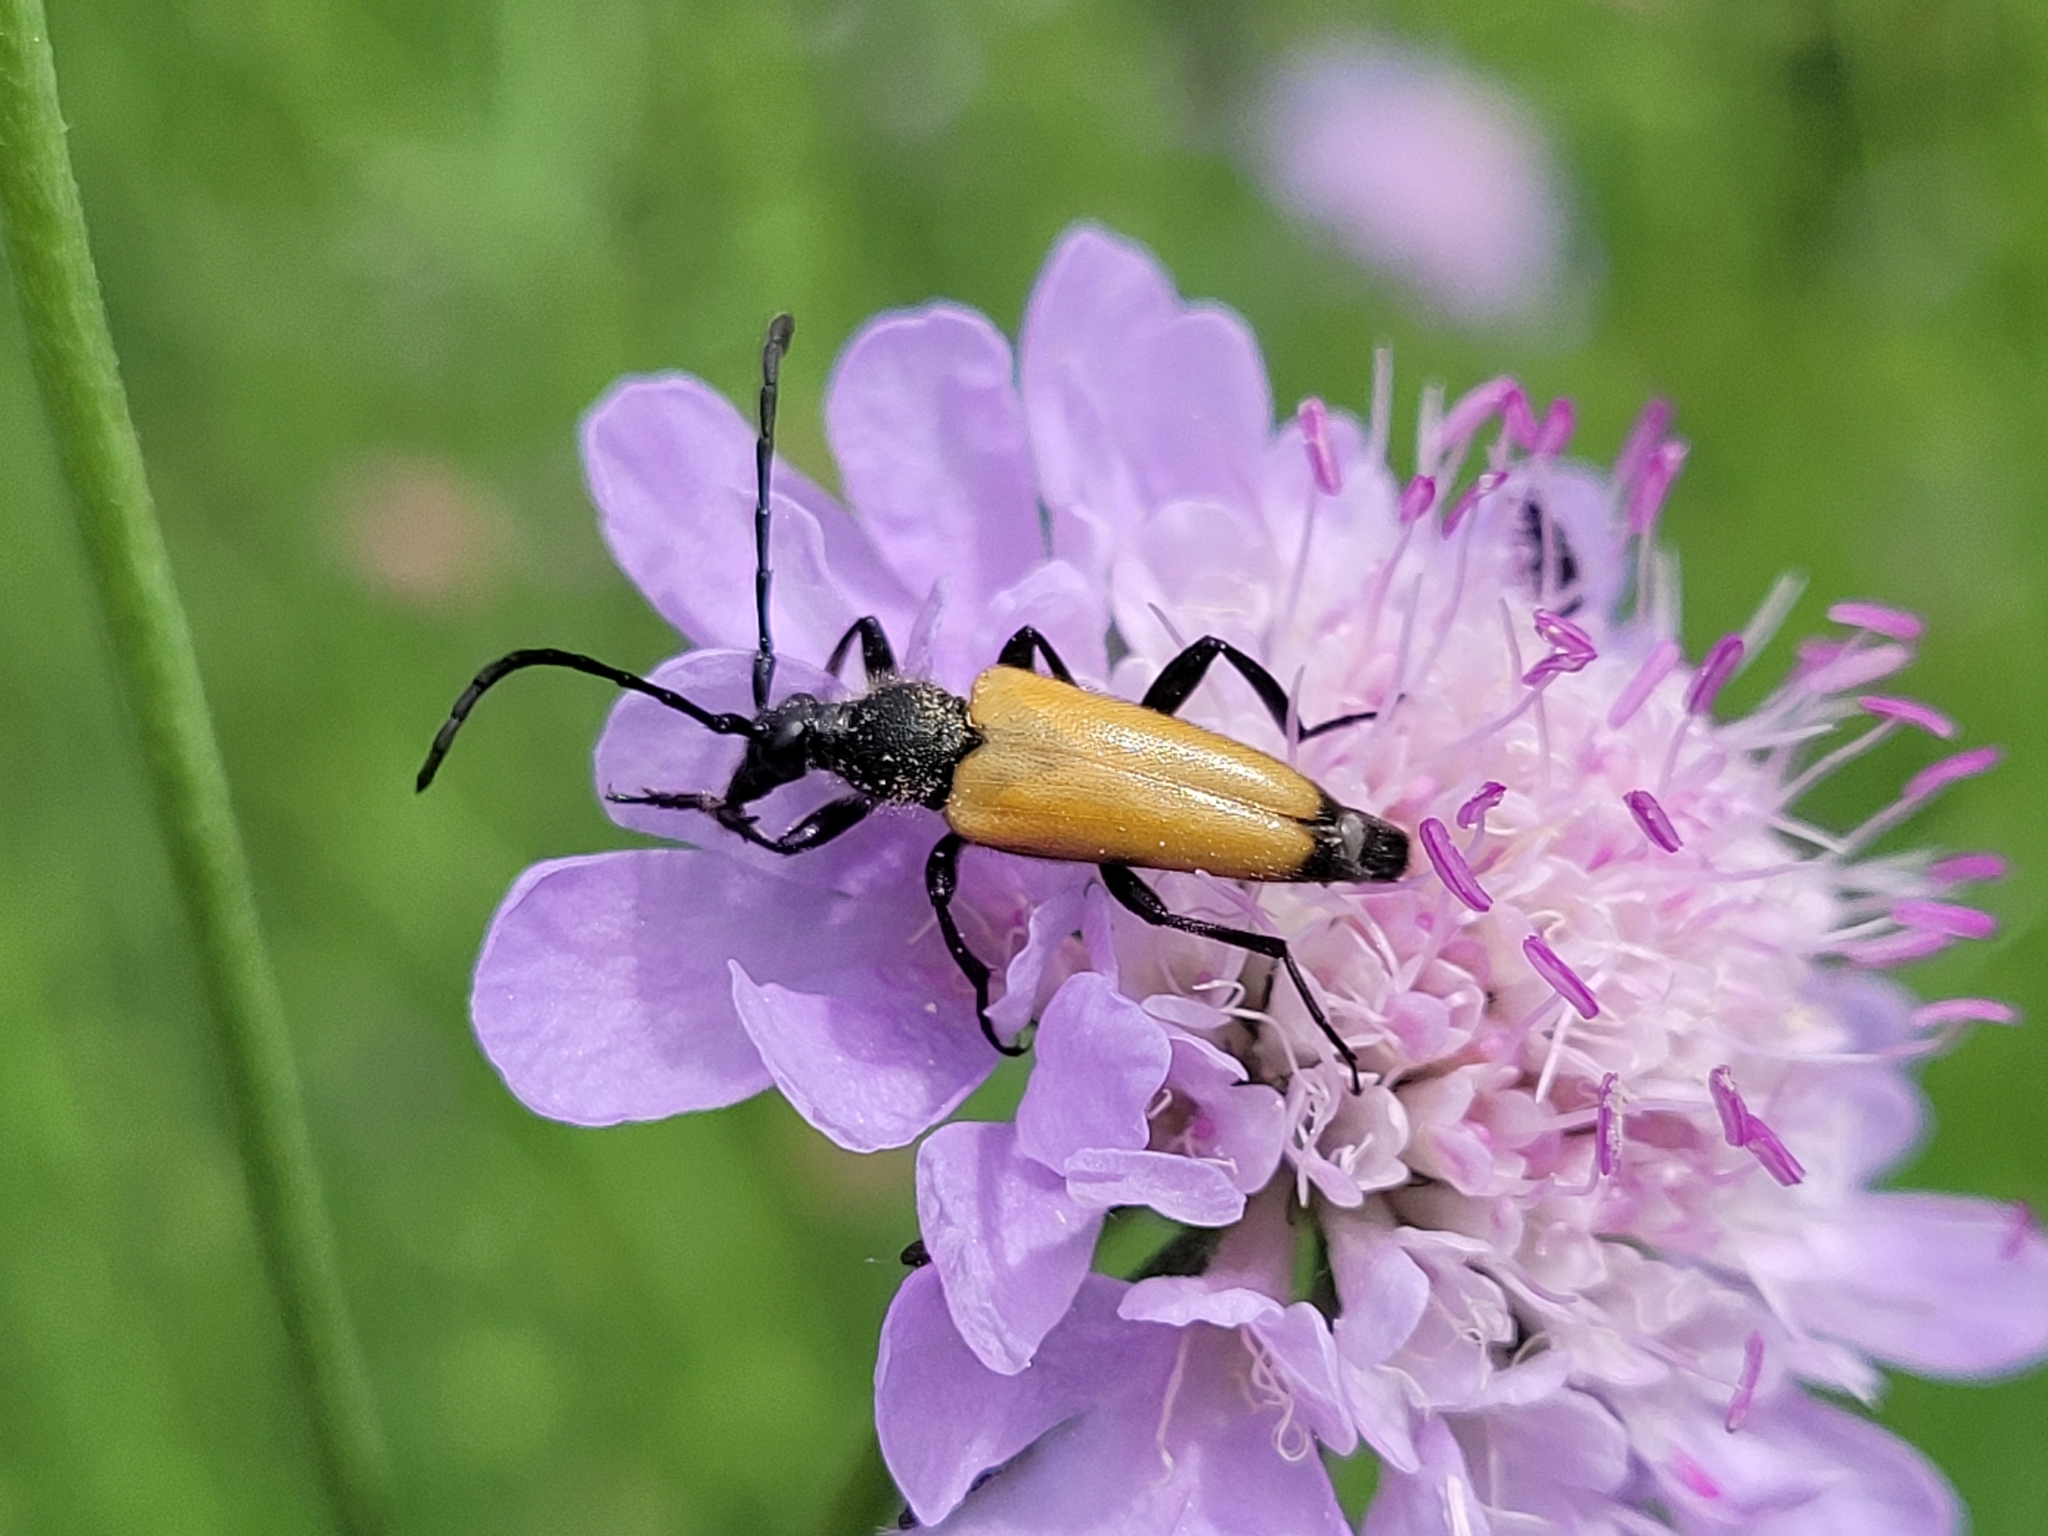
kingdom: Animalia
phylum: Arthropoda
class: Insecta
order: Coleoptera
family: Cerambycidae
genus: Paracorymbia
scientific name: Paracorymbia fulva
